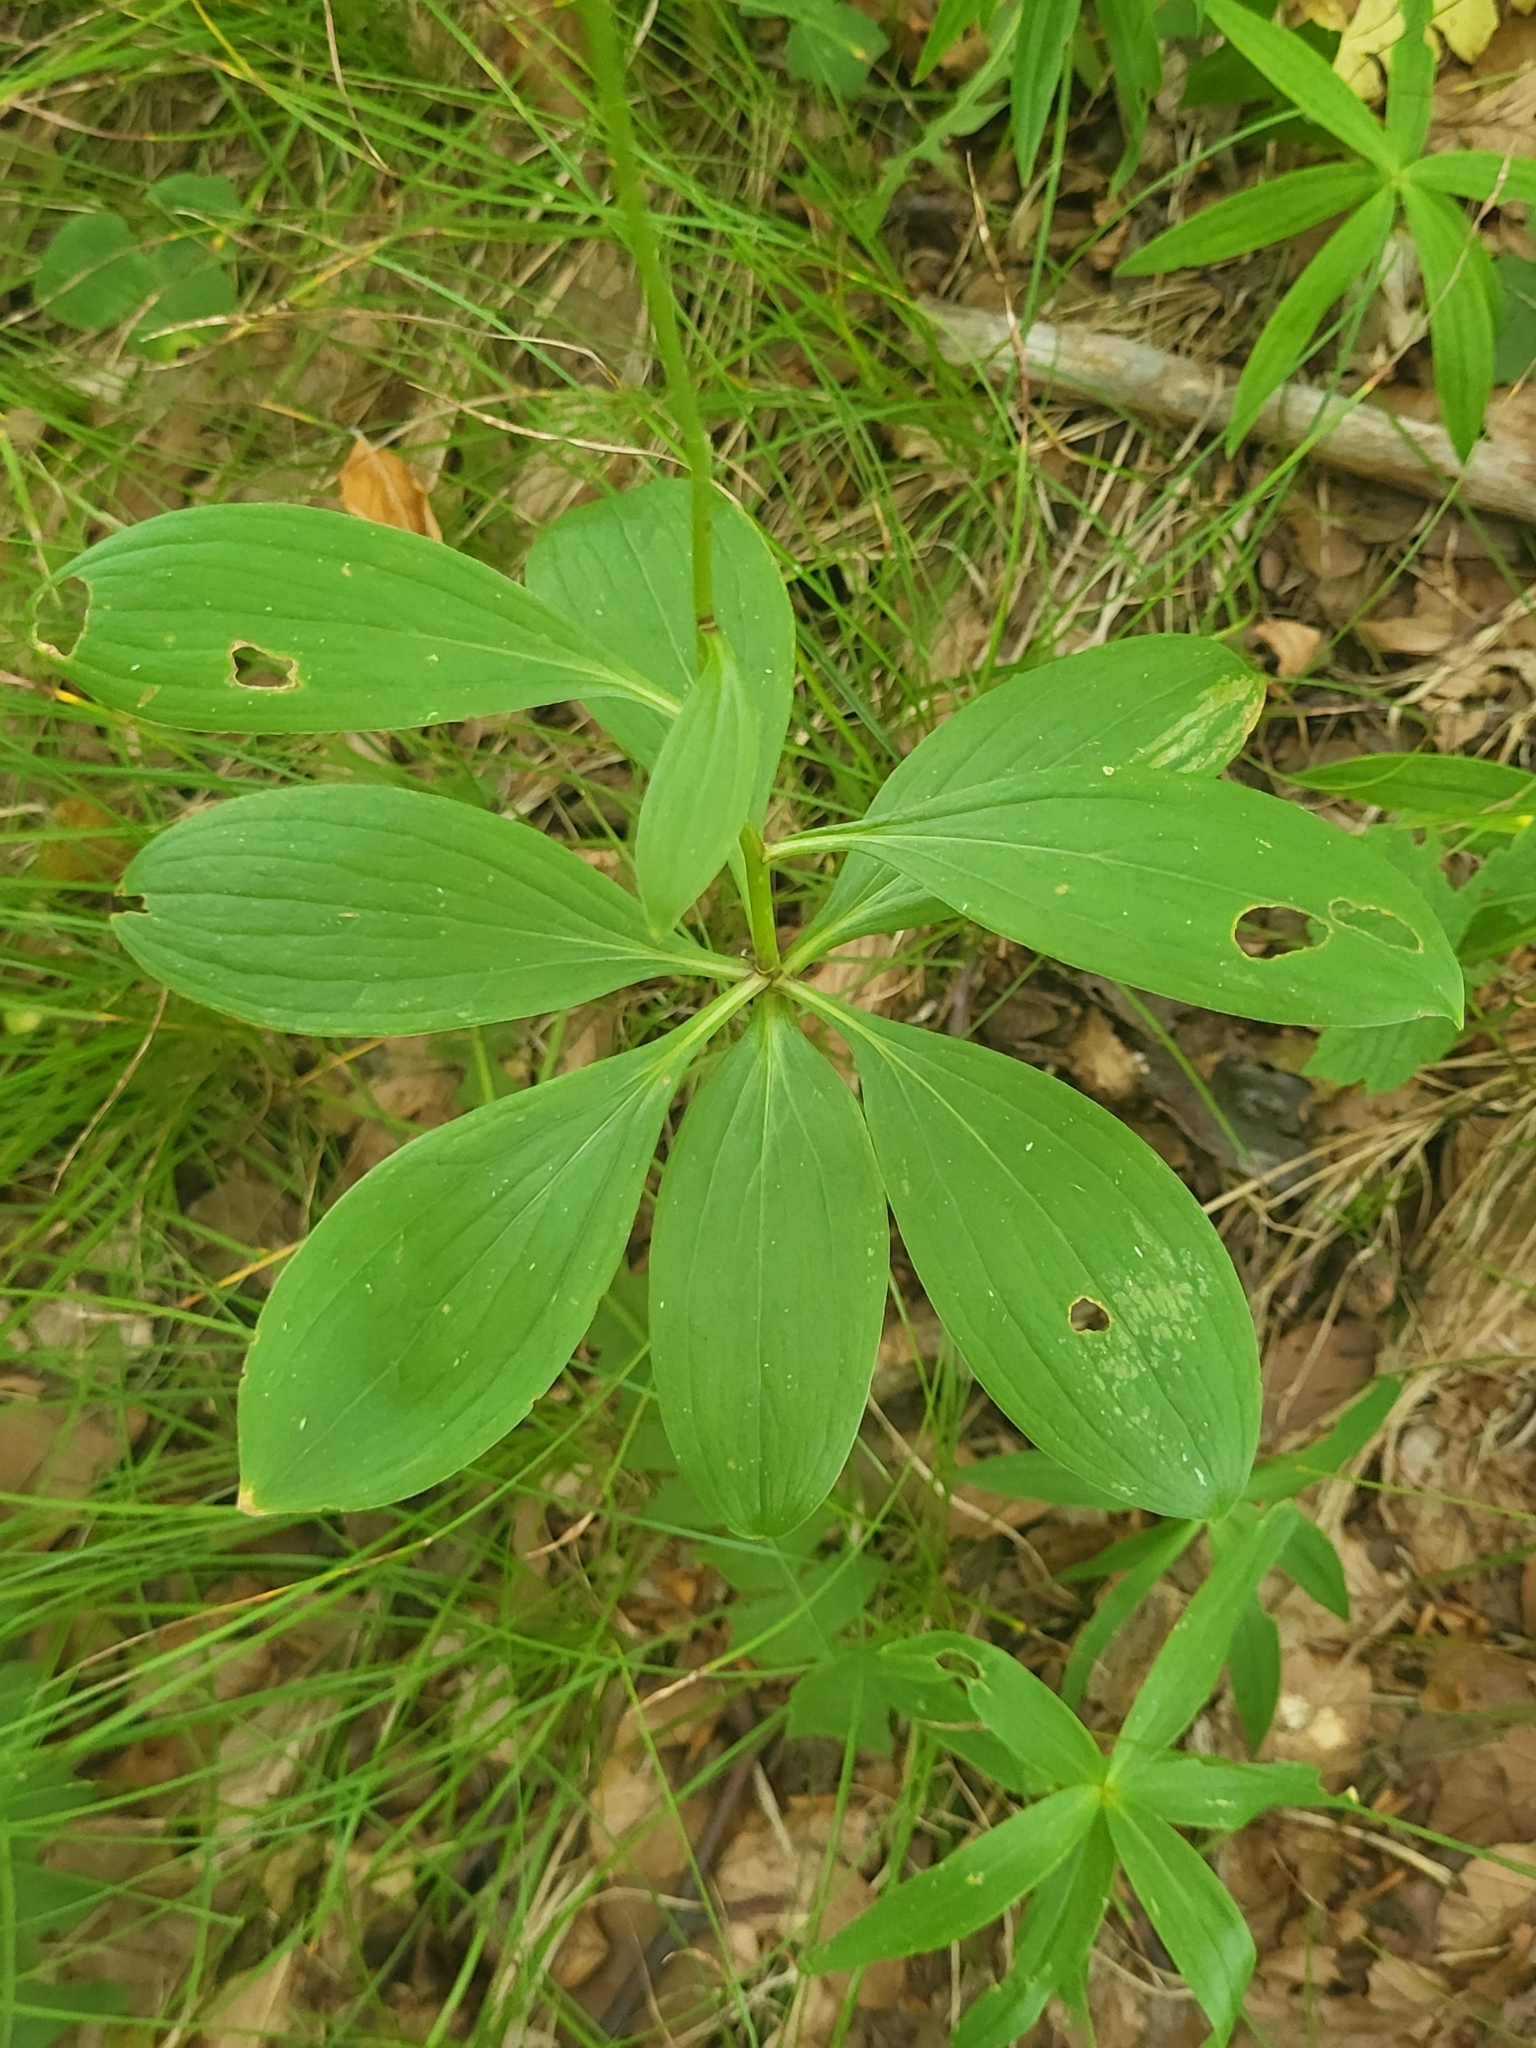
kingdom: Plantae
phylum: Tracheophyta
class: Liliopsida
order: Liliales
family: Liliaceae
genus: Lilium
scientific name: Lilium martagon
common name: Martagon lily
